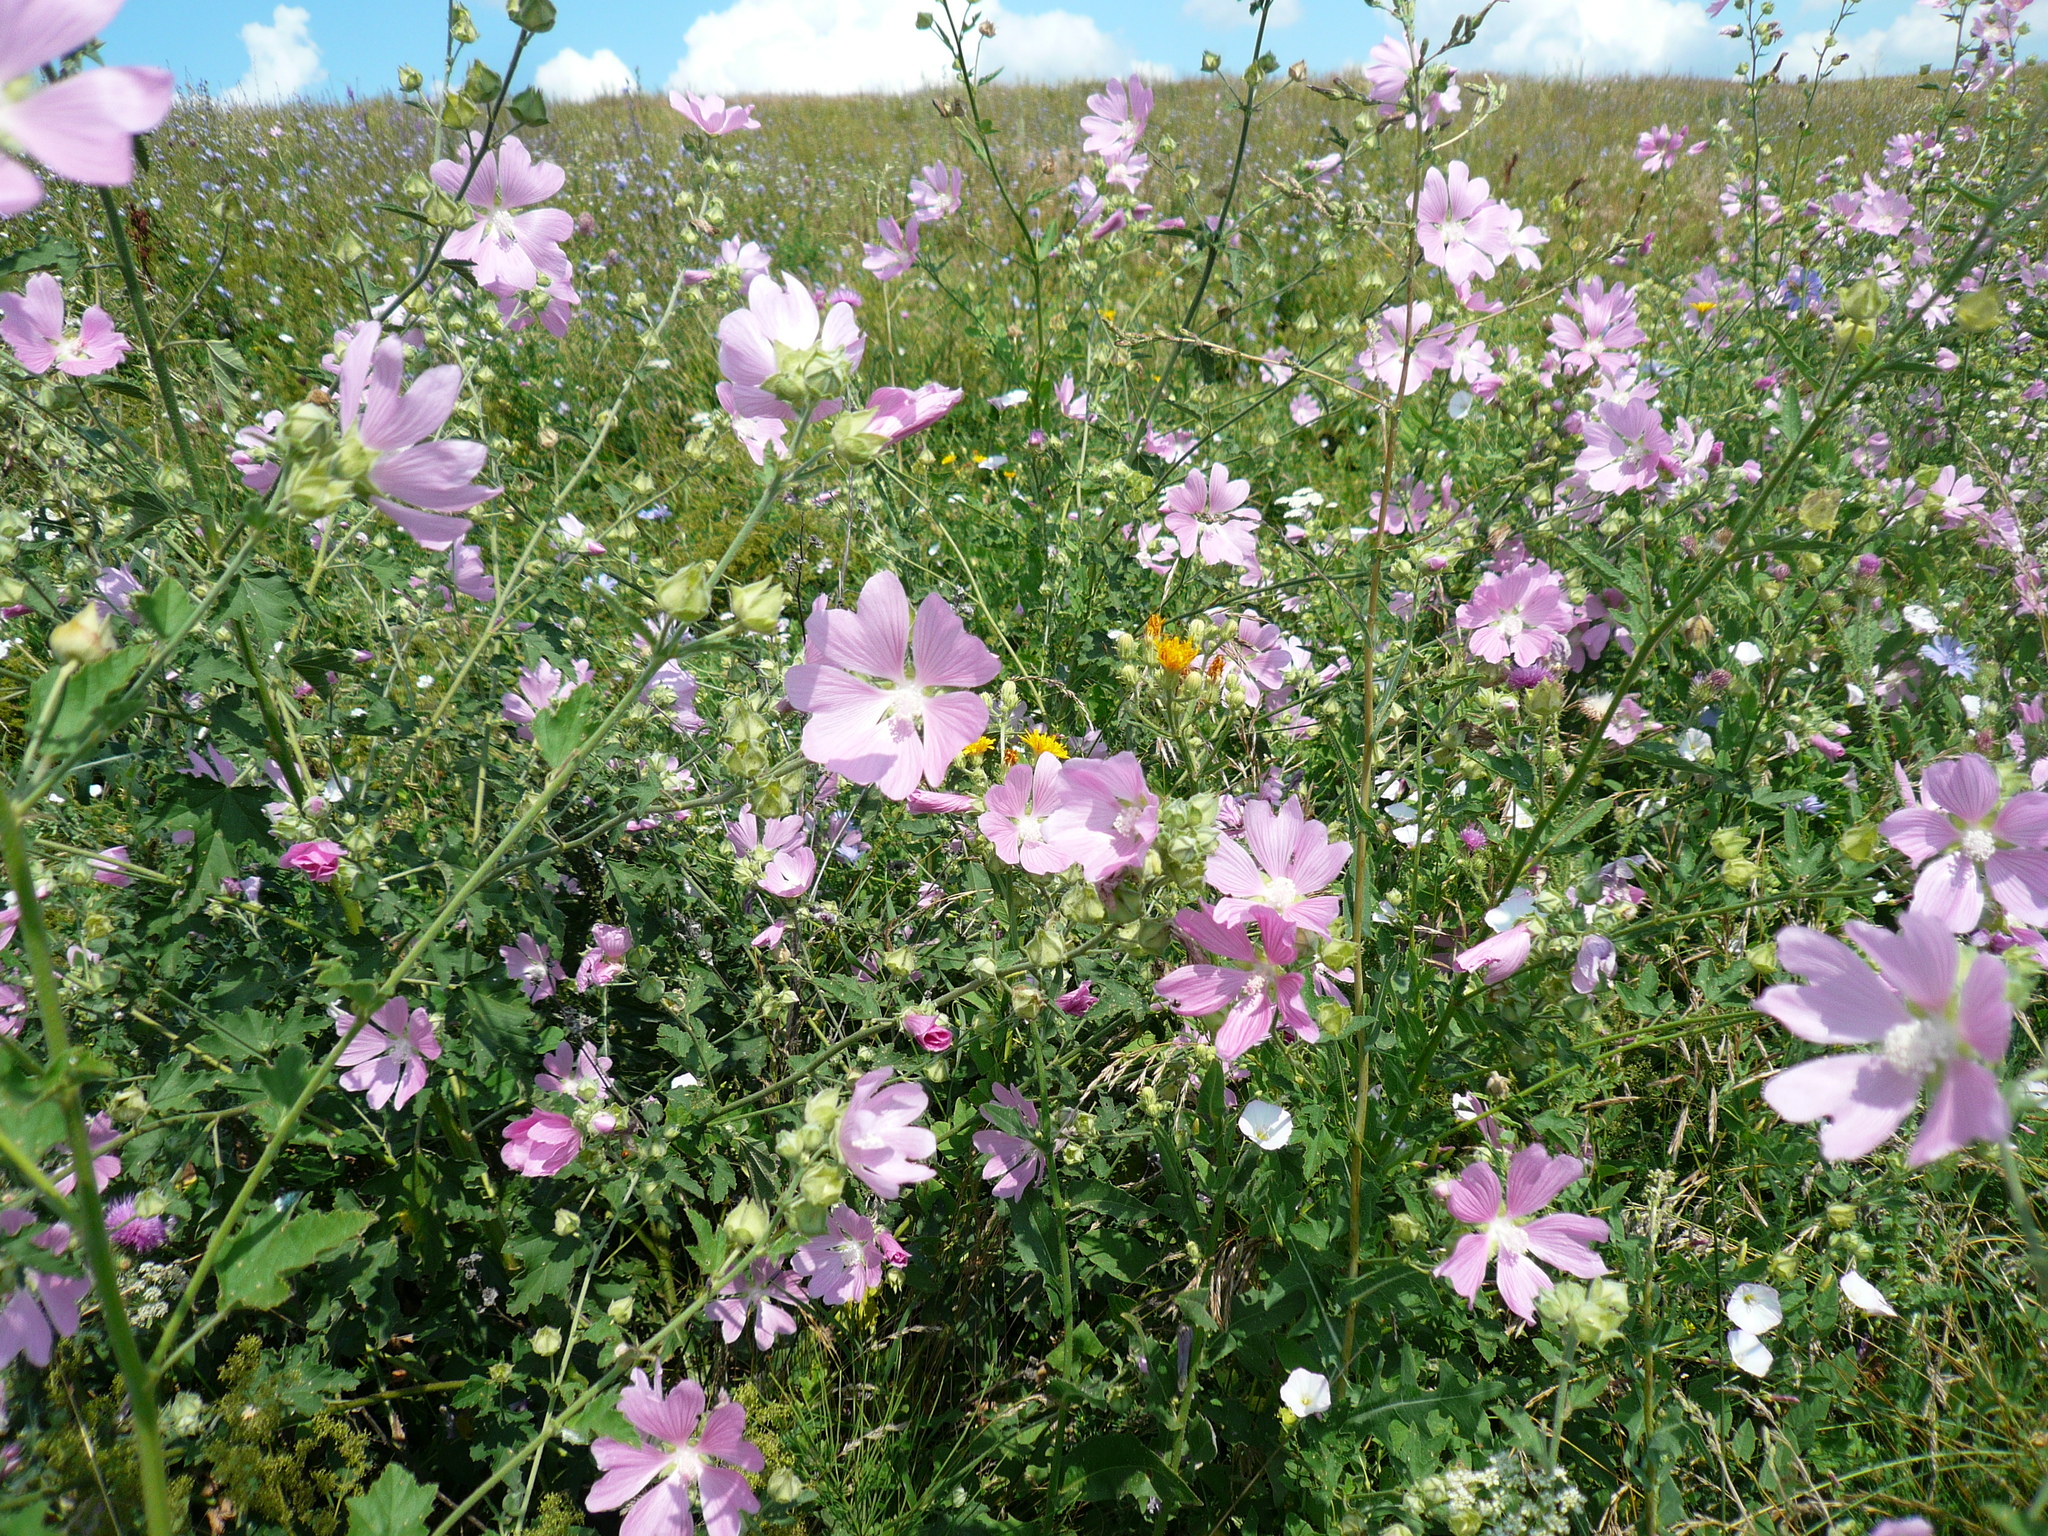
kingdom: Plantae
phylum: Tracheophyta
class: Magnoliopsida
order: Malvales
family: Malvaceae
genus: Malva
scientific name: Malva thuringiaca
